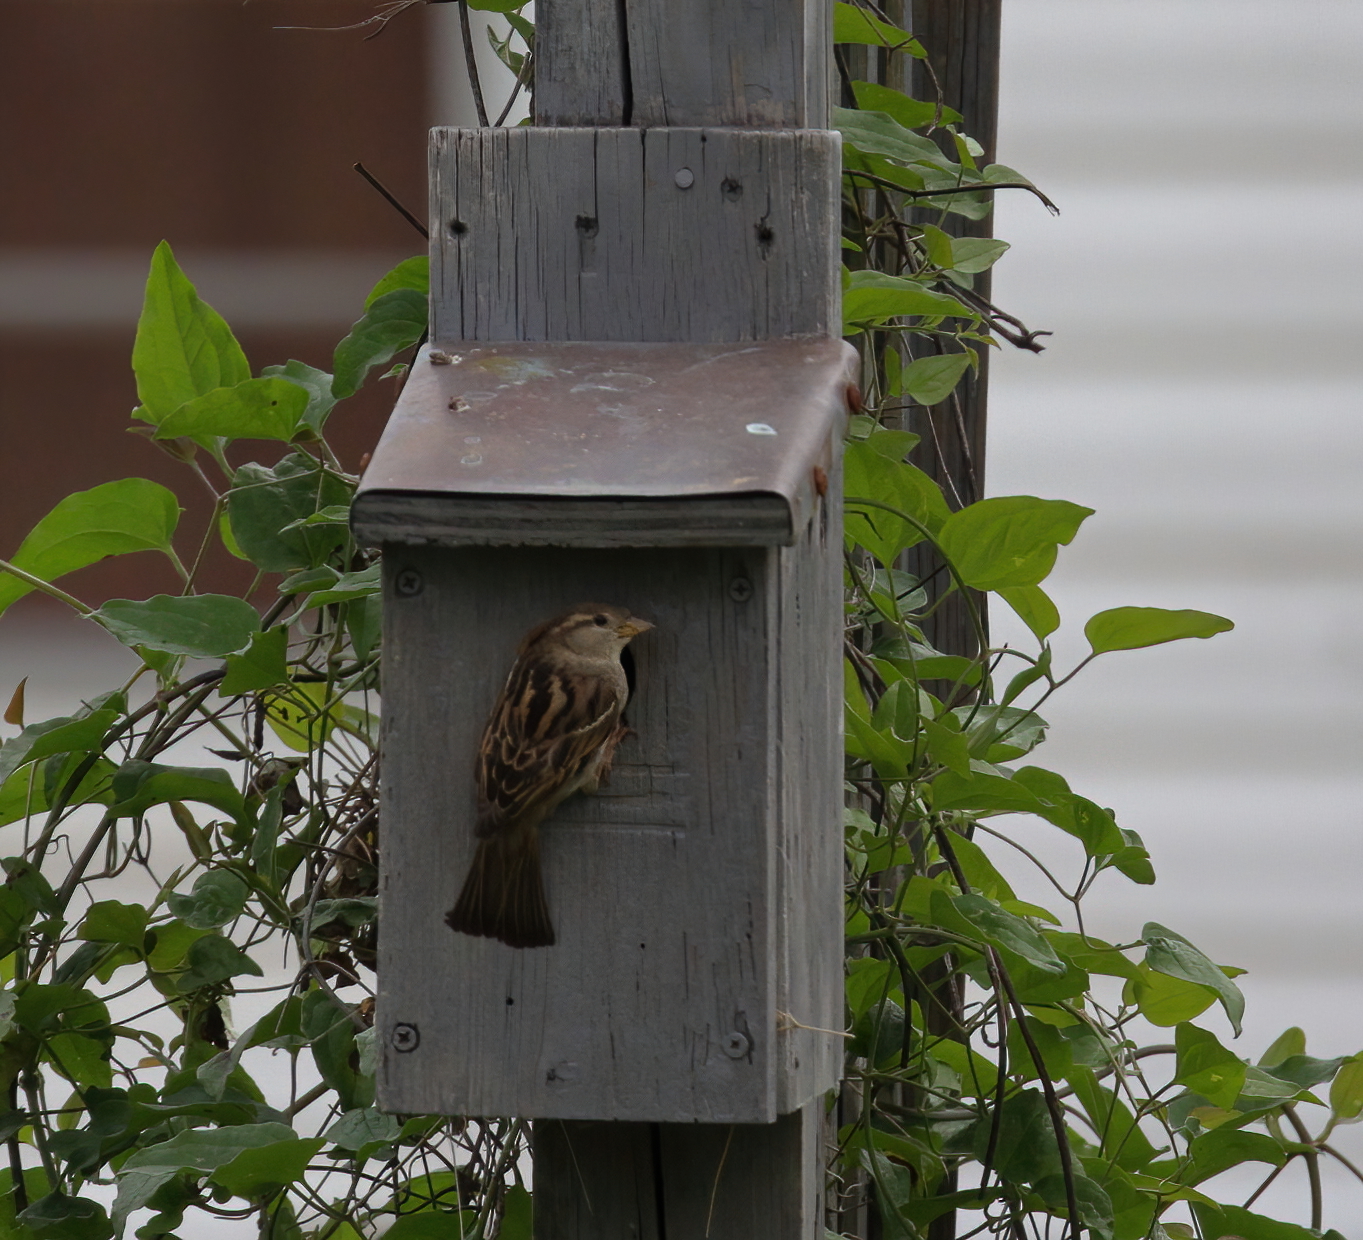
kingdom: Animalia
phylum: Chordata
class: Aves
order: Passeriformes
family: Passeridae
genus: Passer
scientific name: Passer domesticus
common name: House sparrow
